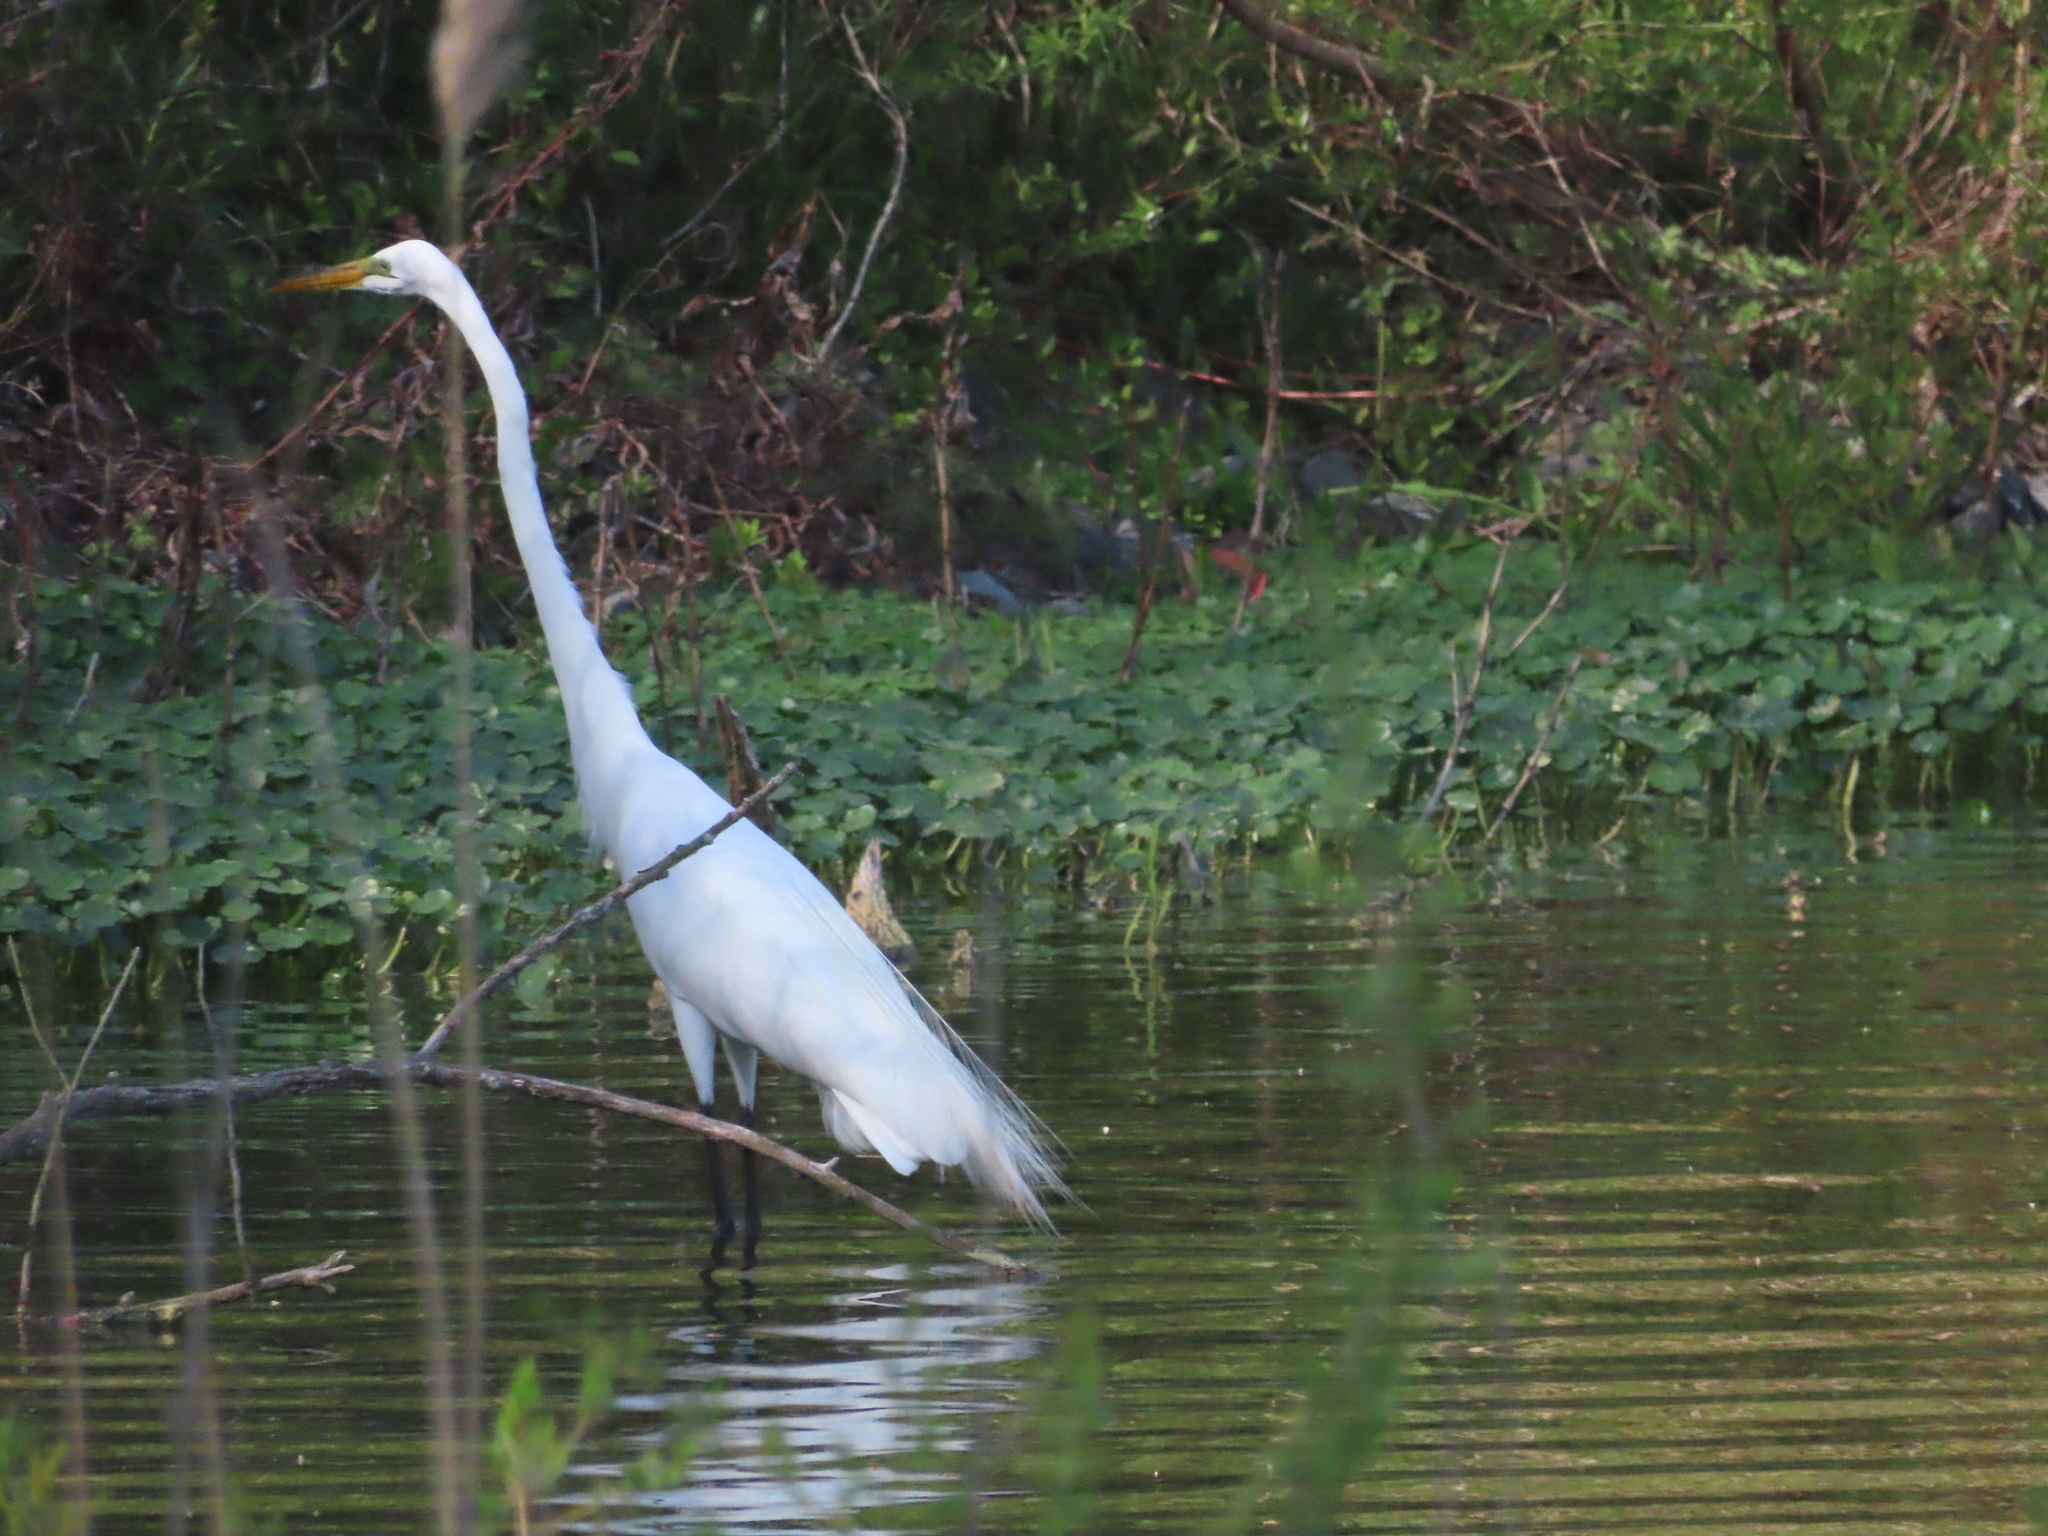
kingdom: Animalia
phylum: Chordata
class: Aves
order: Pelecaniformes
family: Ardeidae
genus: Ardea
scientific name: Ardea alba
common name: Great egret
